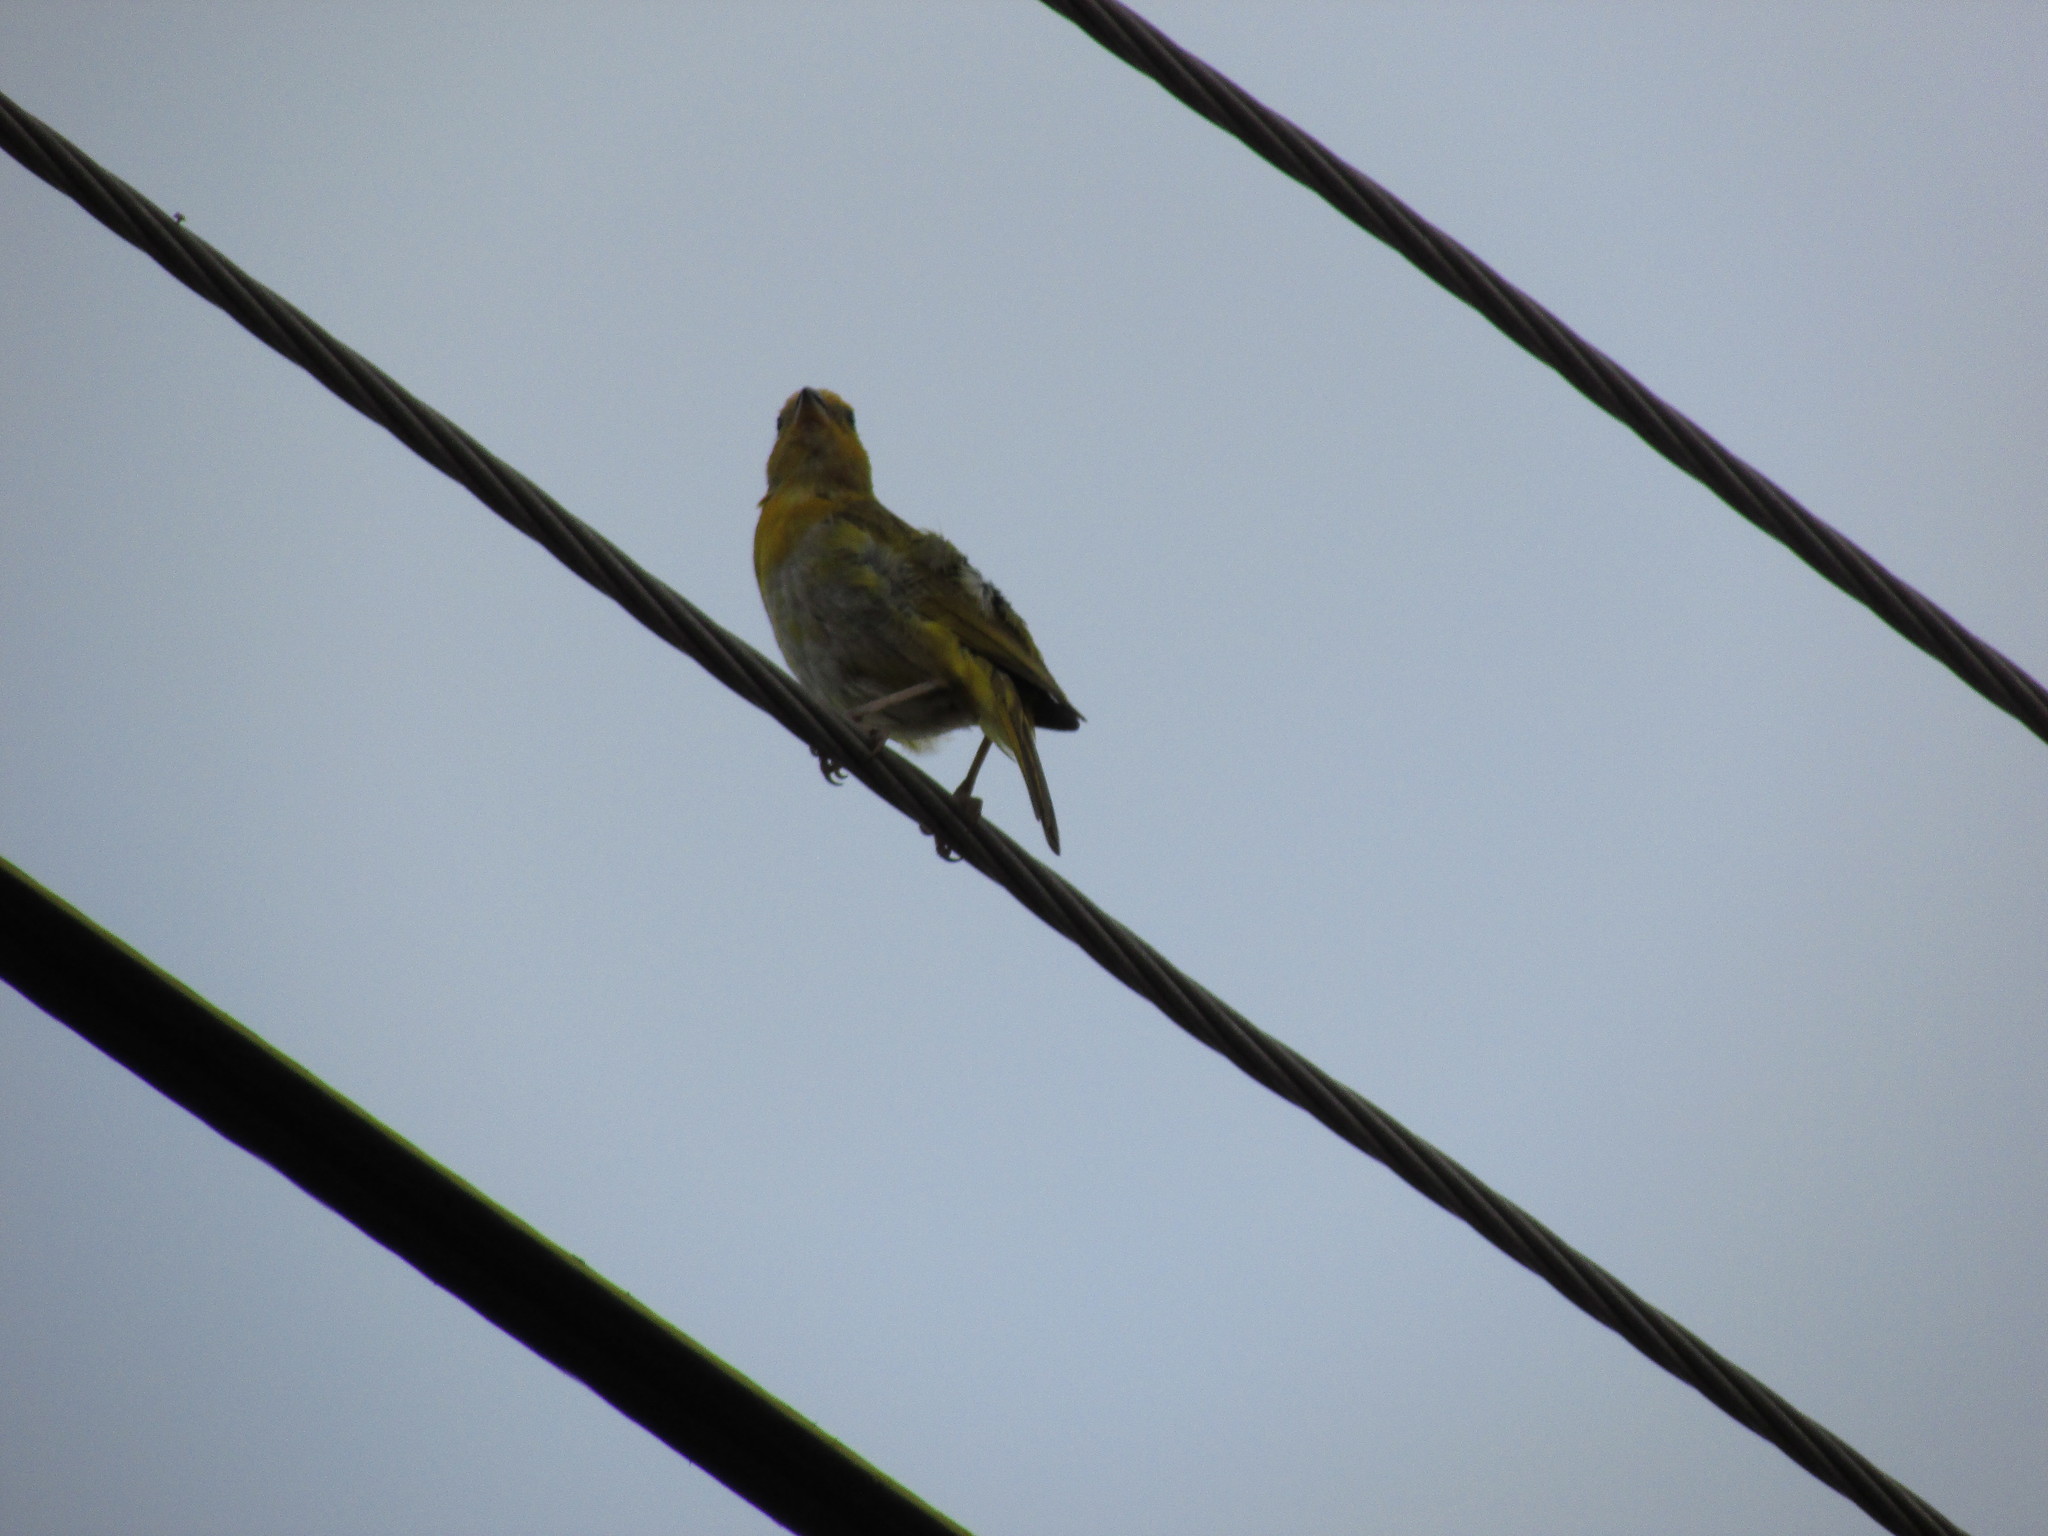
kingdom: Animalia
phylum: Chordata
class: Aves
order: Passeriformes
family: Thraupidae
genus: Sicalis
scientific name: Sicalis flaveola
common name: Saffron finch
